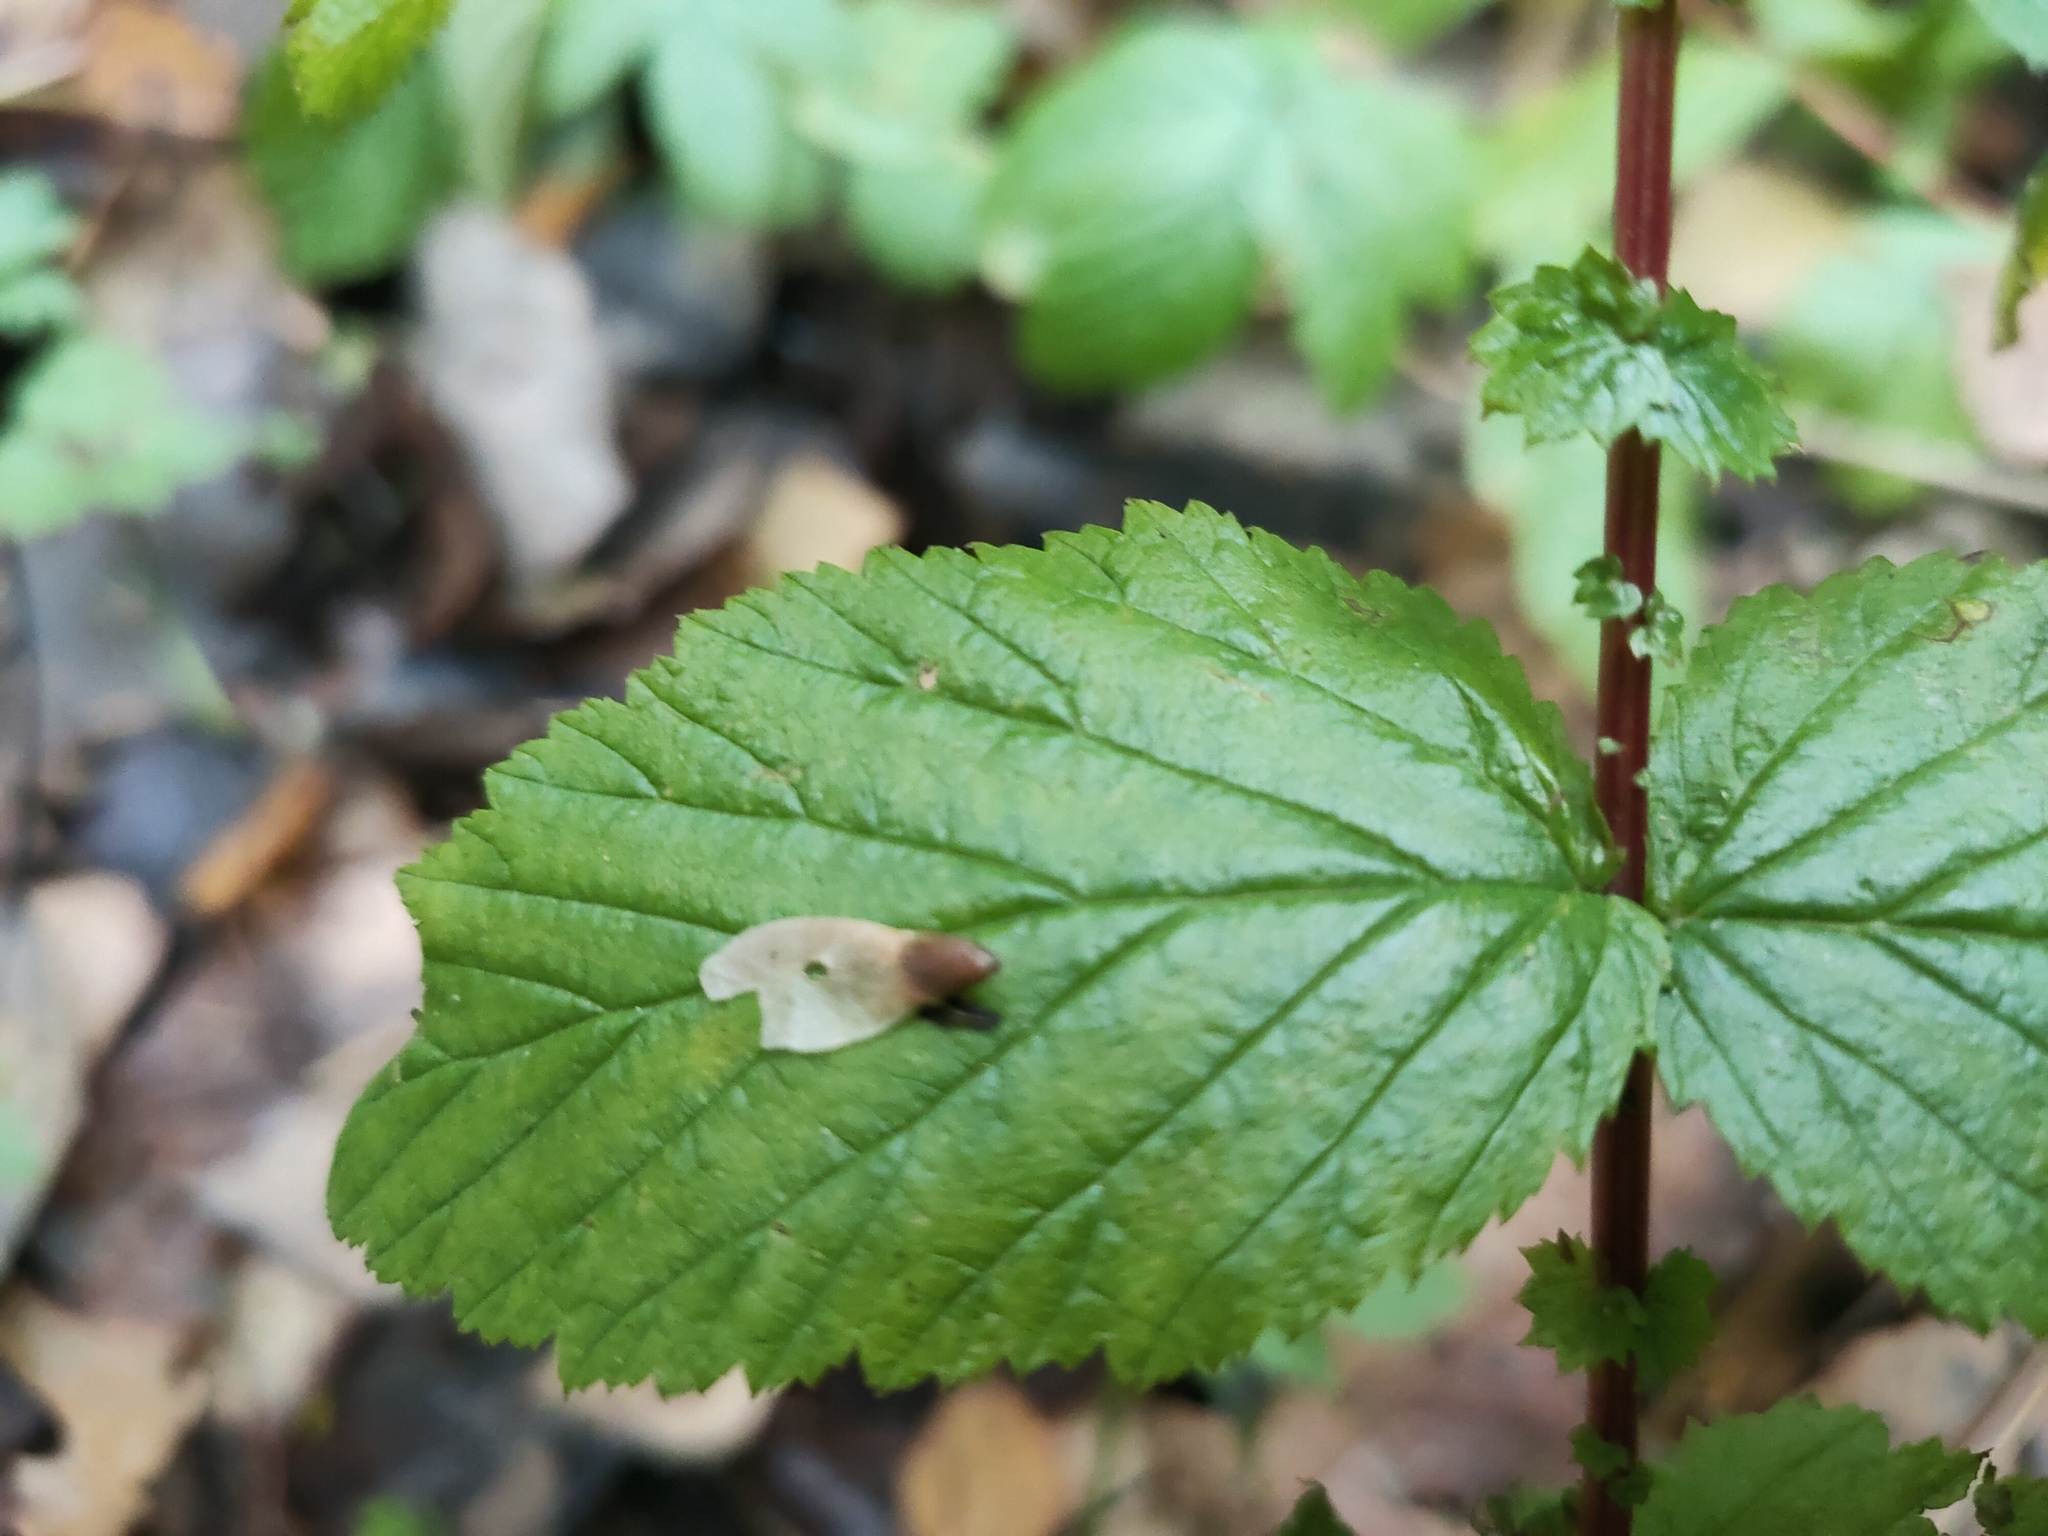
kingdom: Plantae
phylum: Tracheophyta
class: Magnoliopsida
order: Rosales
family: Rosaceae
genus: Filipendula
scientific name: Filipendula ulmaria
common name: Meadowsweet
